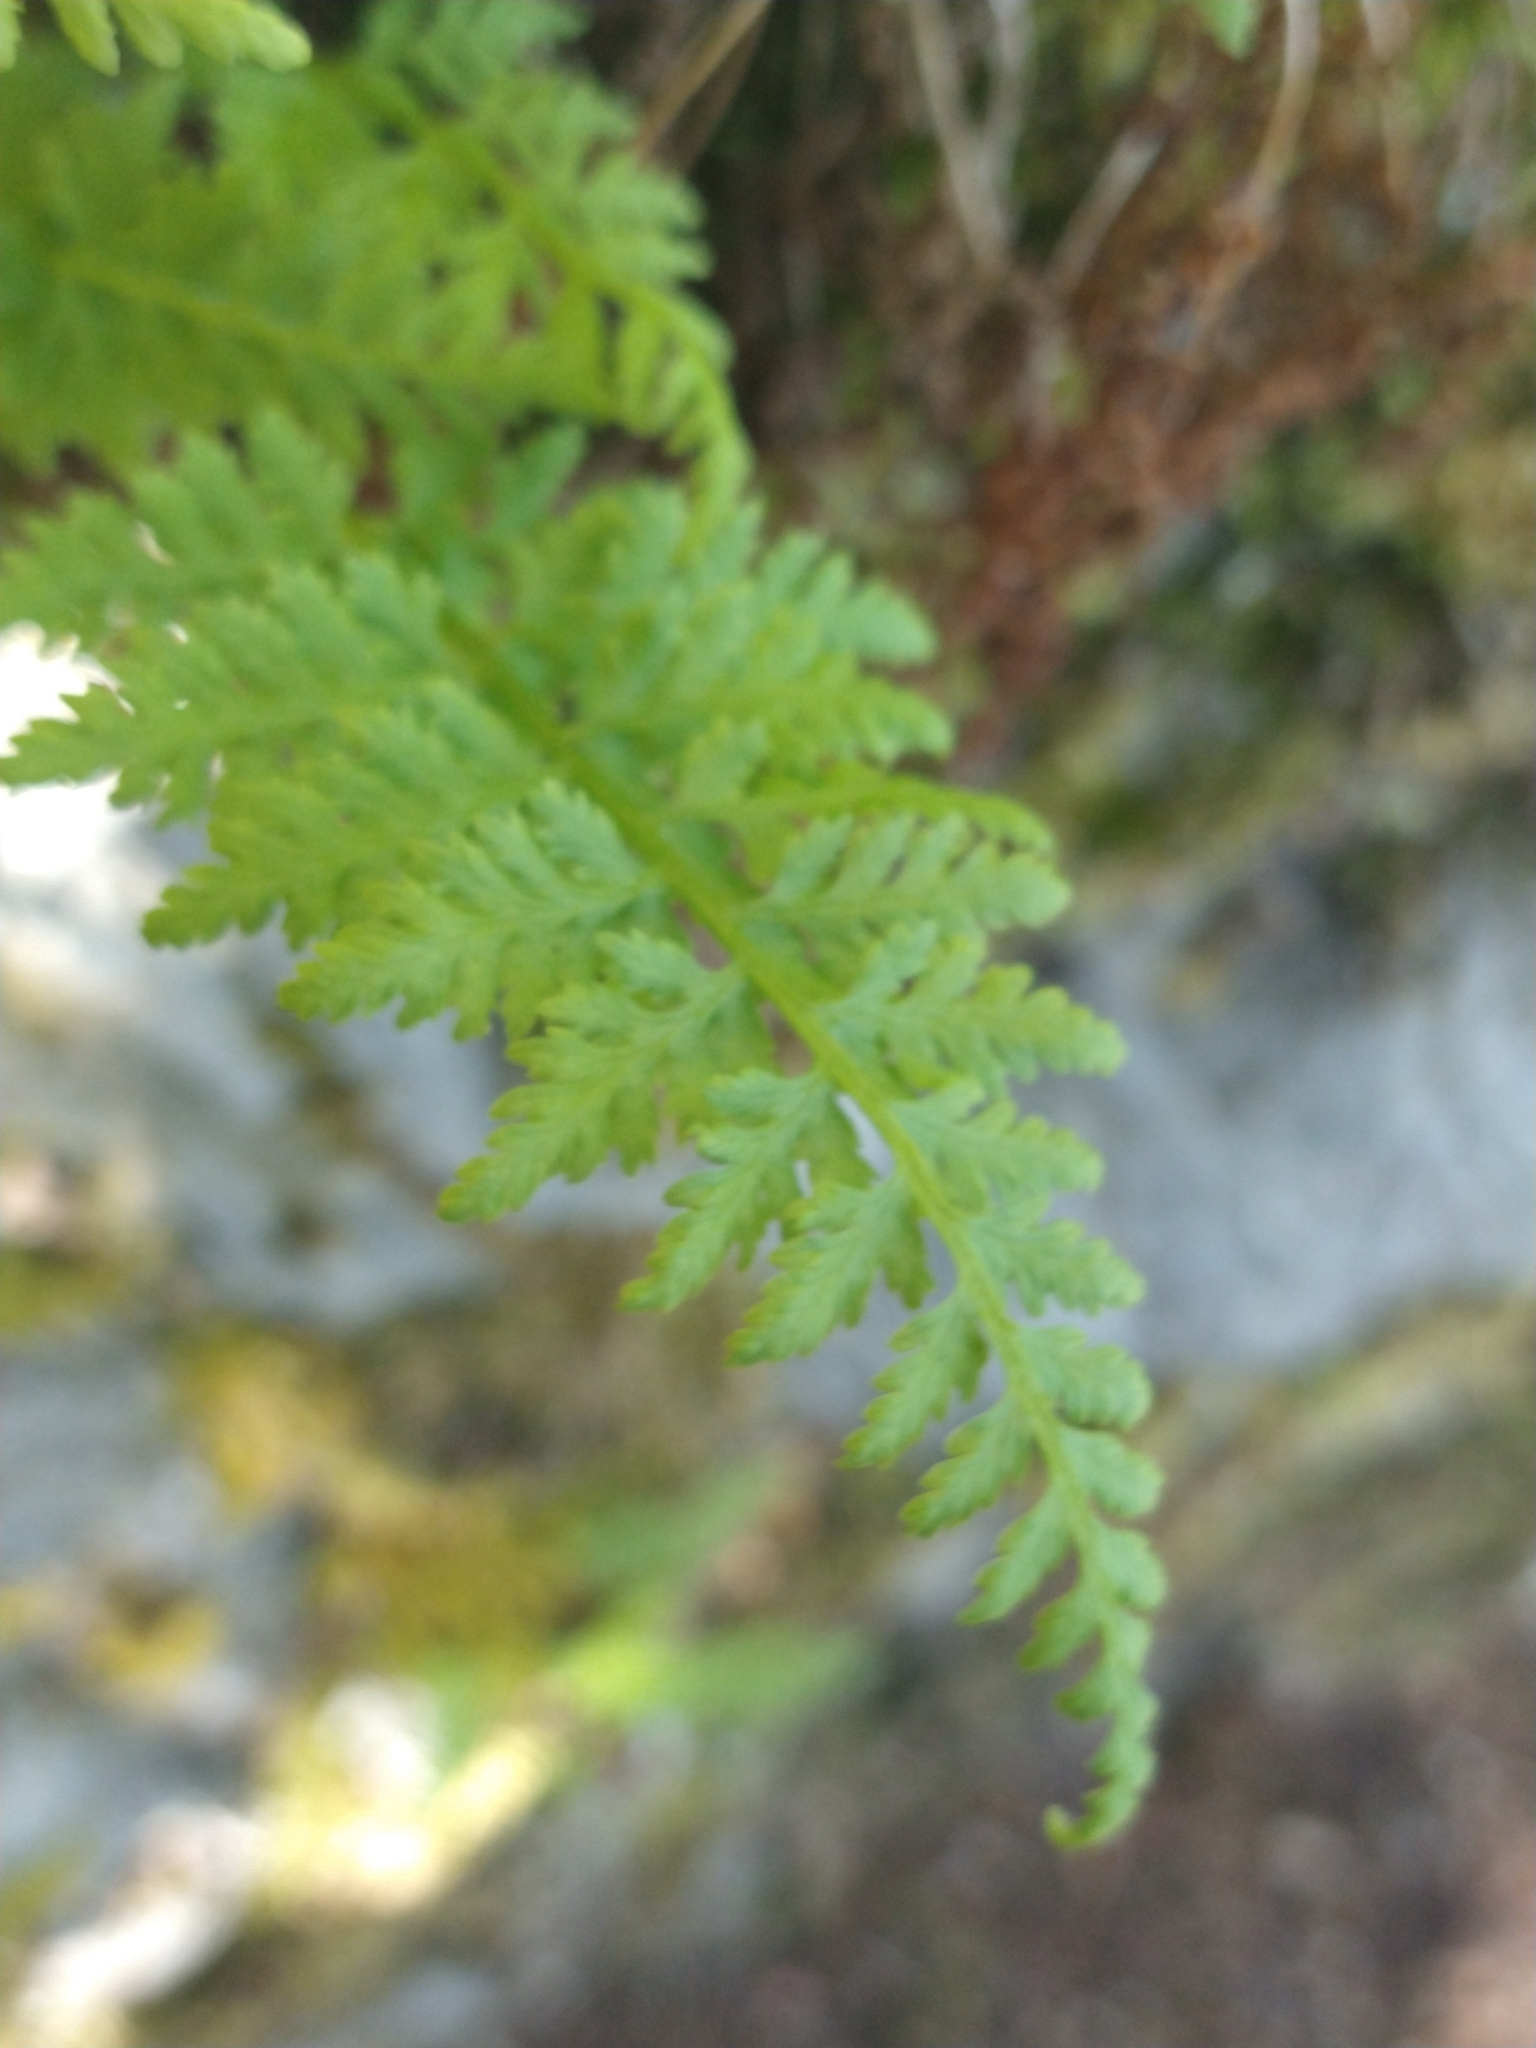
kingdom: Plantae
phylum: Tracheophyta
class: Polypodiopsida
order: Polypodiales
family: Cystopteridaceae
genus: Cystopteris
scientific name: Cystopteris fragilis
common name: Brittle bladder fern
